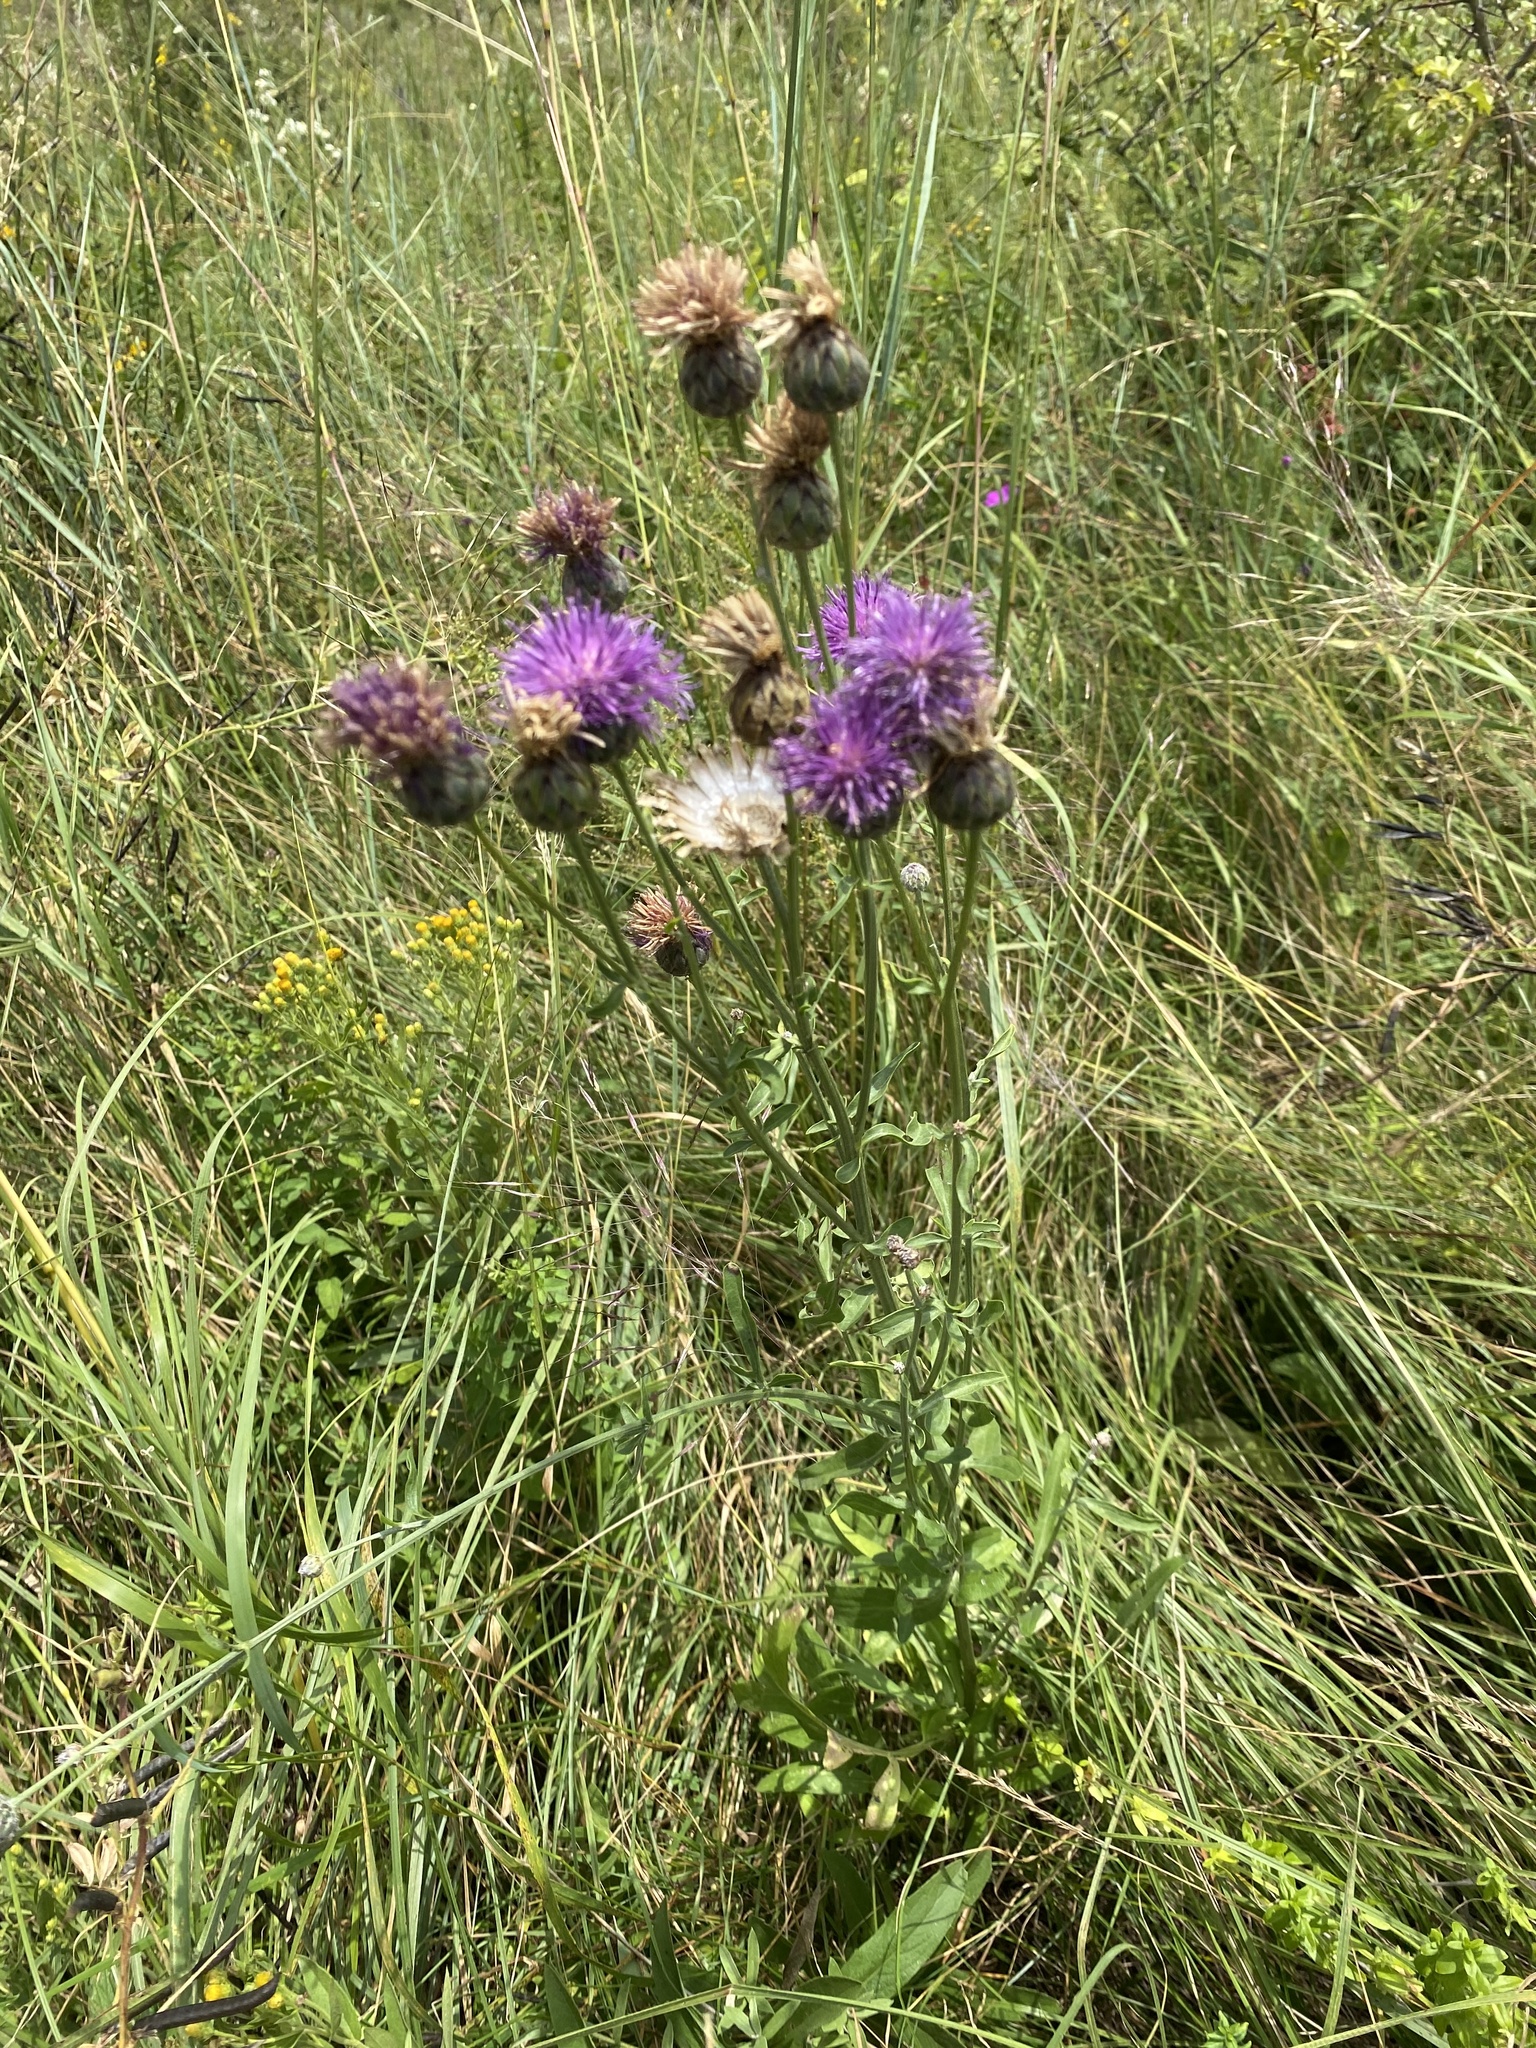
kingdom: Plantae
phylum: Tracheophyta
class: Magnoliopsida
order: Asterales
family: Asteraceae
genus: Centaurea
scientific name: Centaurea scabiosa
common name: Greater knapweed
